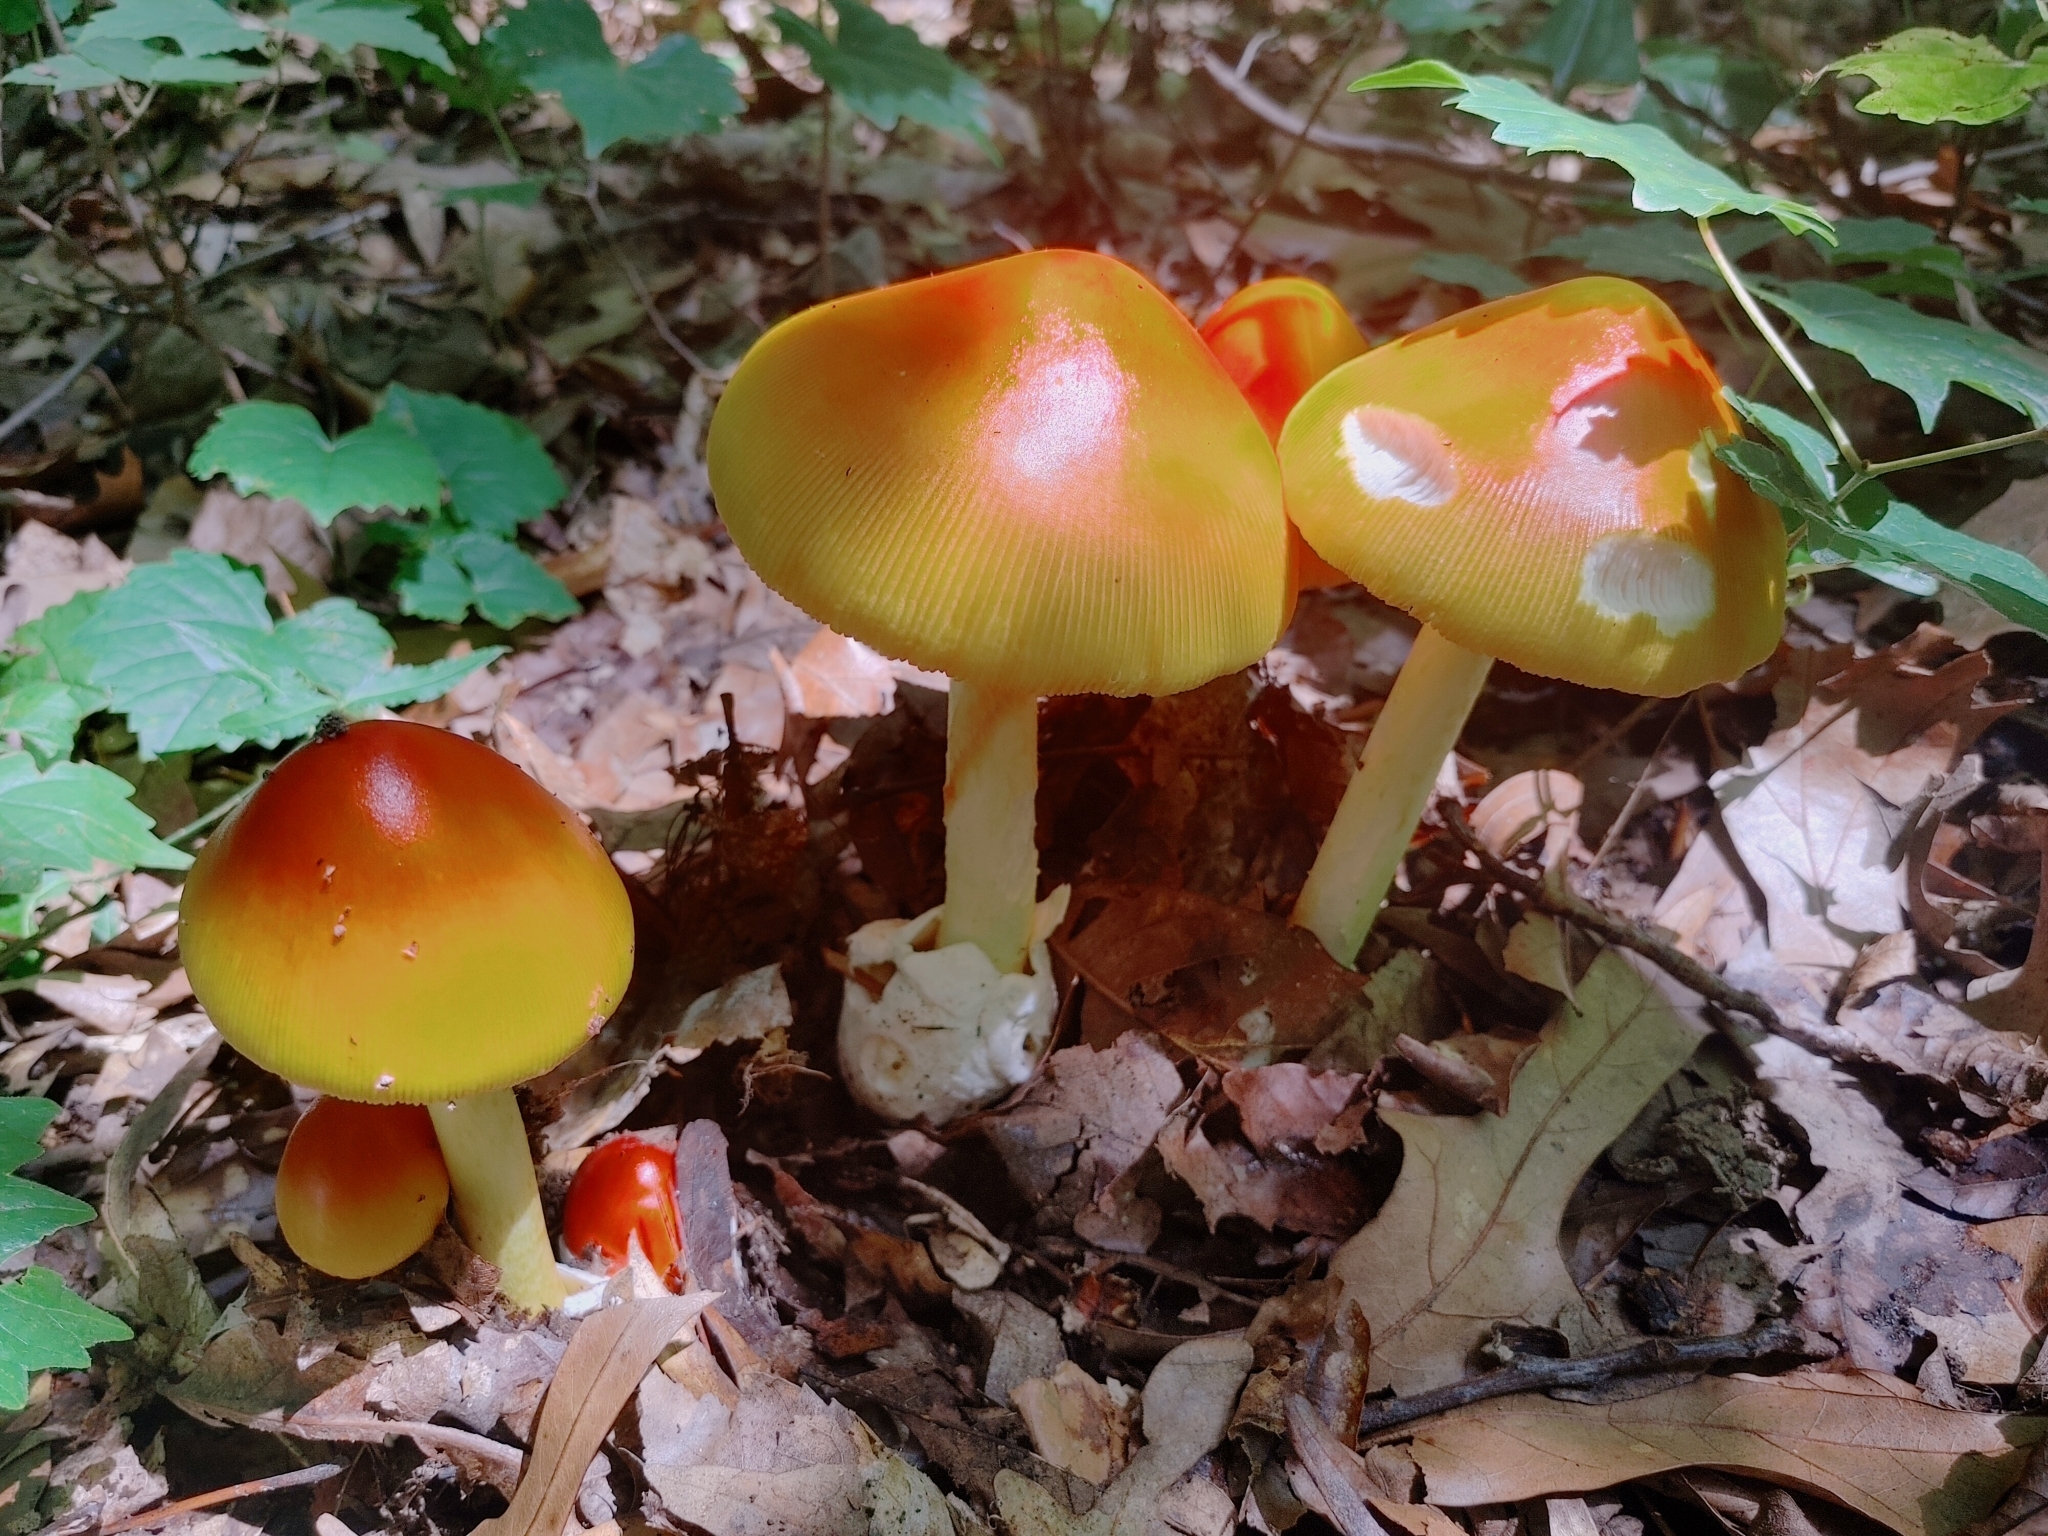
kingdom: Fungi
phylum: Basidiomycota
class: Agaricomycetes
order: Agaricales
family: Amanitaceae
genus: Amanita
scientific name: Amanita jacksonii
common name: Jackson's slender caesar
